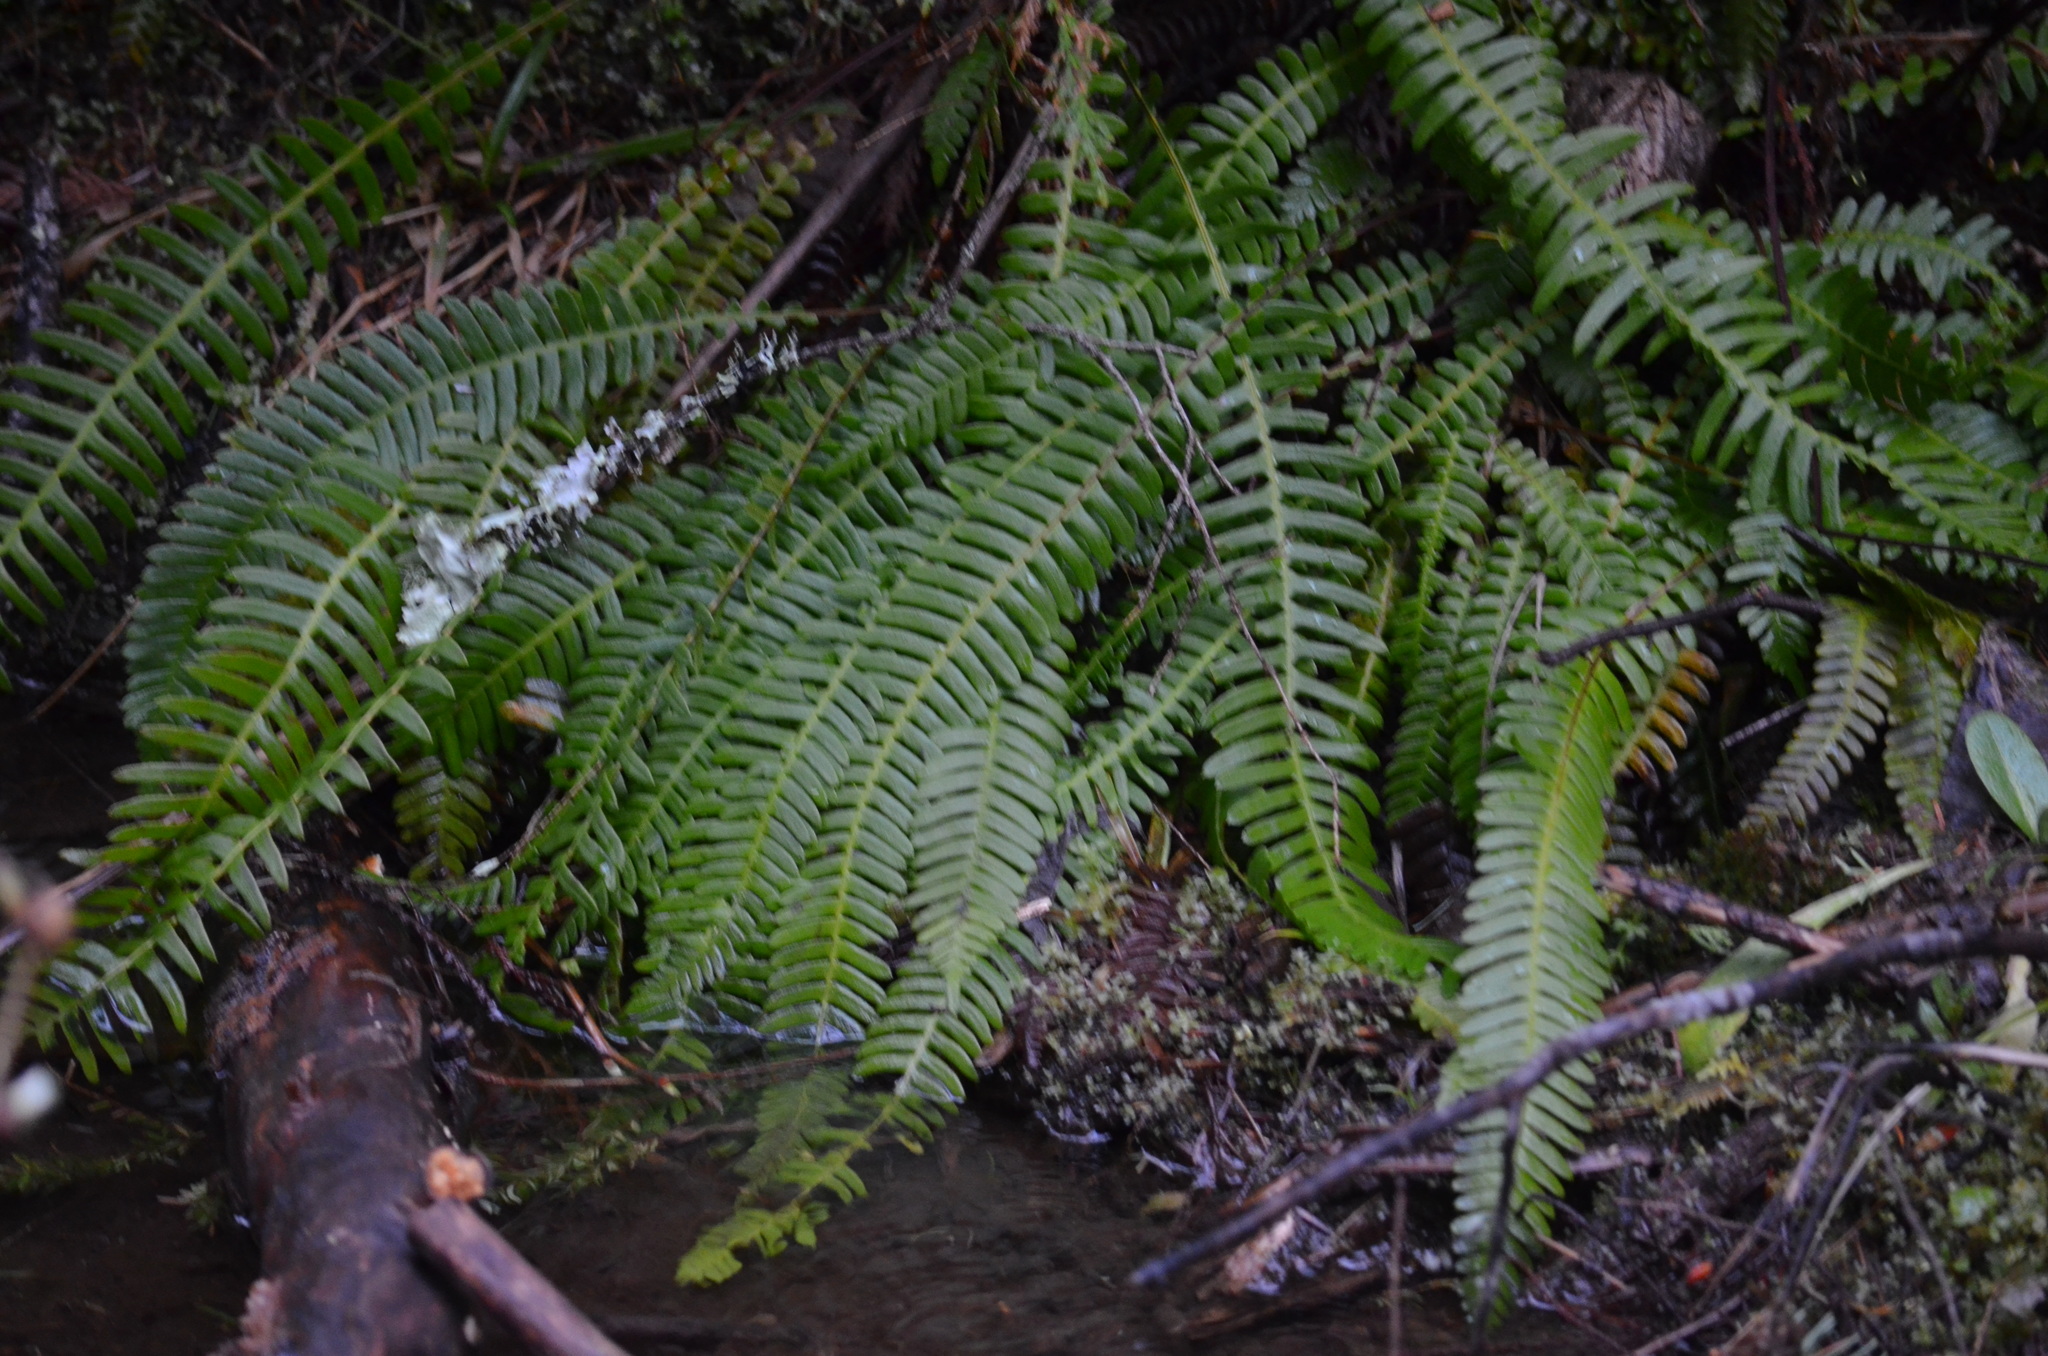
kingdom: Plantae
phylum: Tracheophyta
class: Polypodiopsida
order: Polypodiales
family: Blechnaceae
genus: Struthiopteris
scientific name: Struthiopteris spicant
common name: Deer fern
